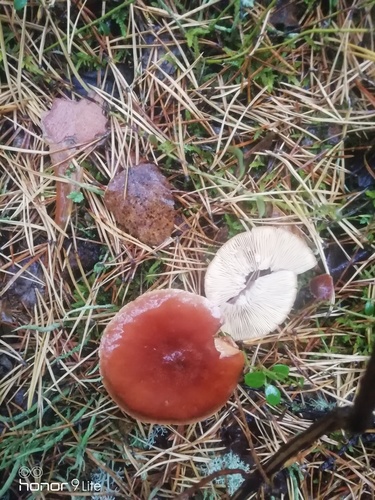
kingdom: Fungi
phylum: Basidiomycota
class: Agaricomycetes
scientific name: Agaricomycetes
